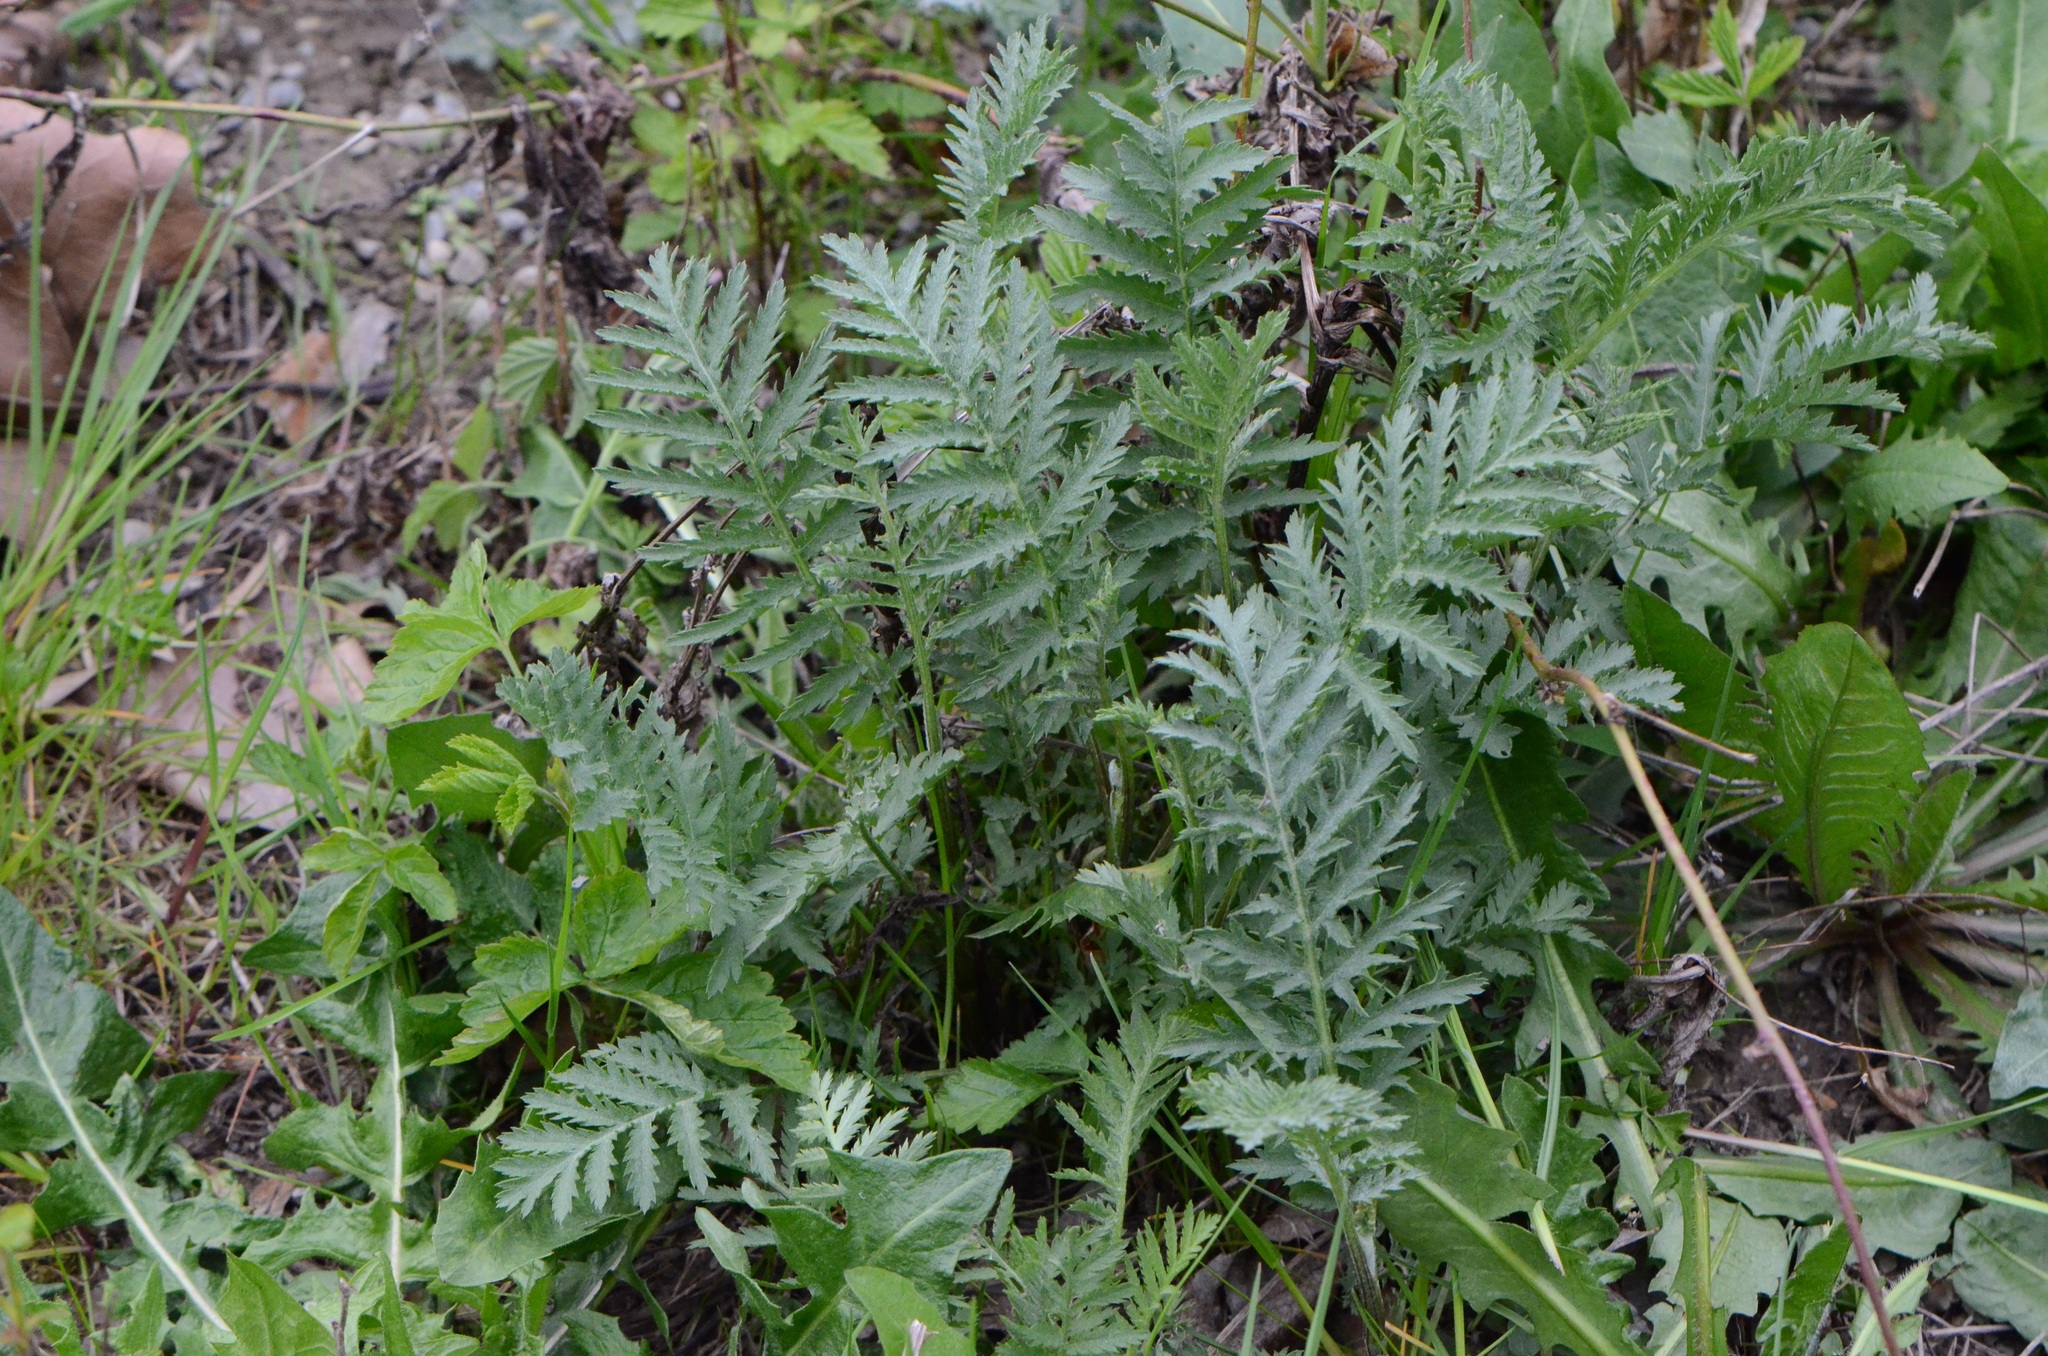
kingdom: Plantae
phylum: Tracheophyta
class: Magnoliopsida
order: Asterales
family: Asteraceae
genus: Tanacetum
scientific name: Tanacetum vulgare
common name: Common tansy
